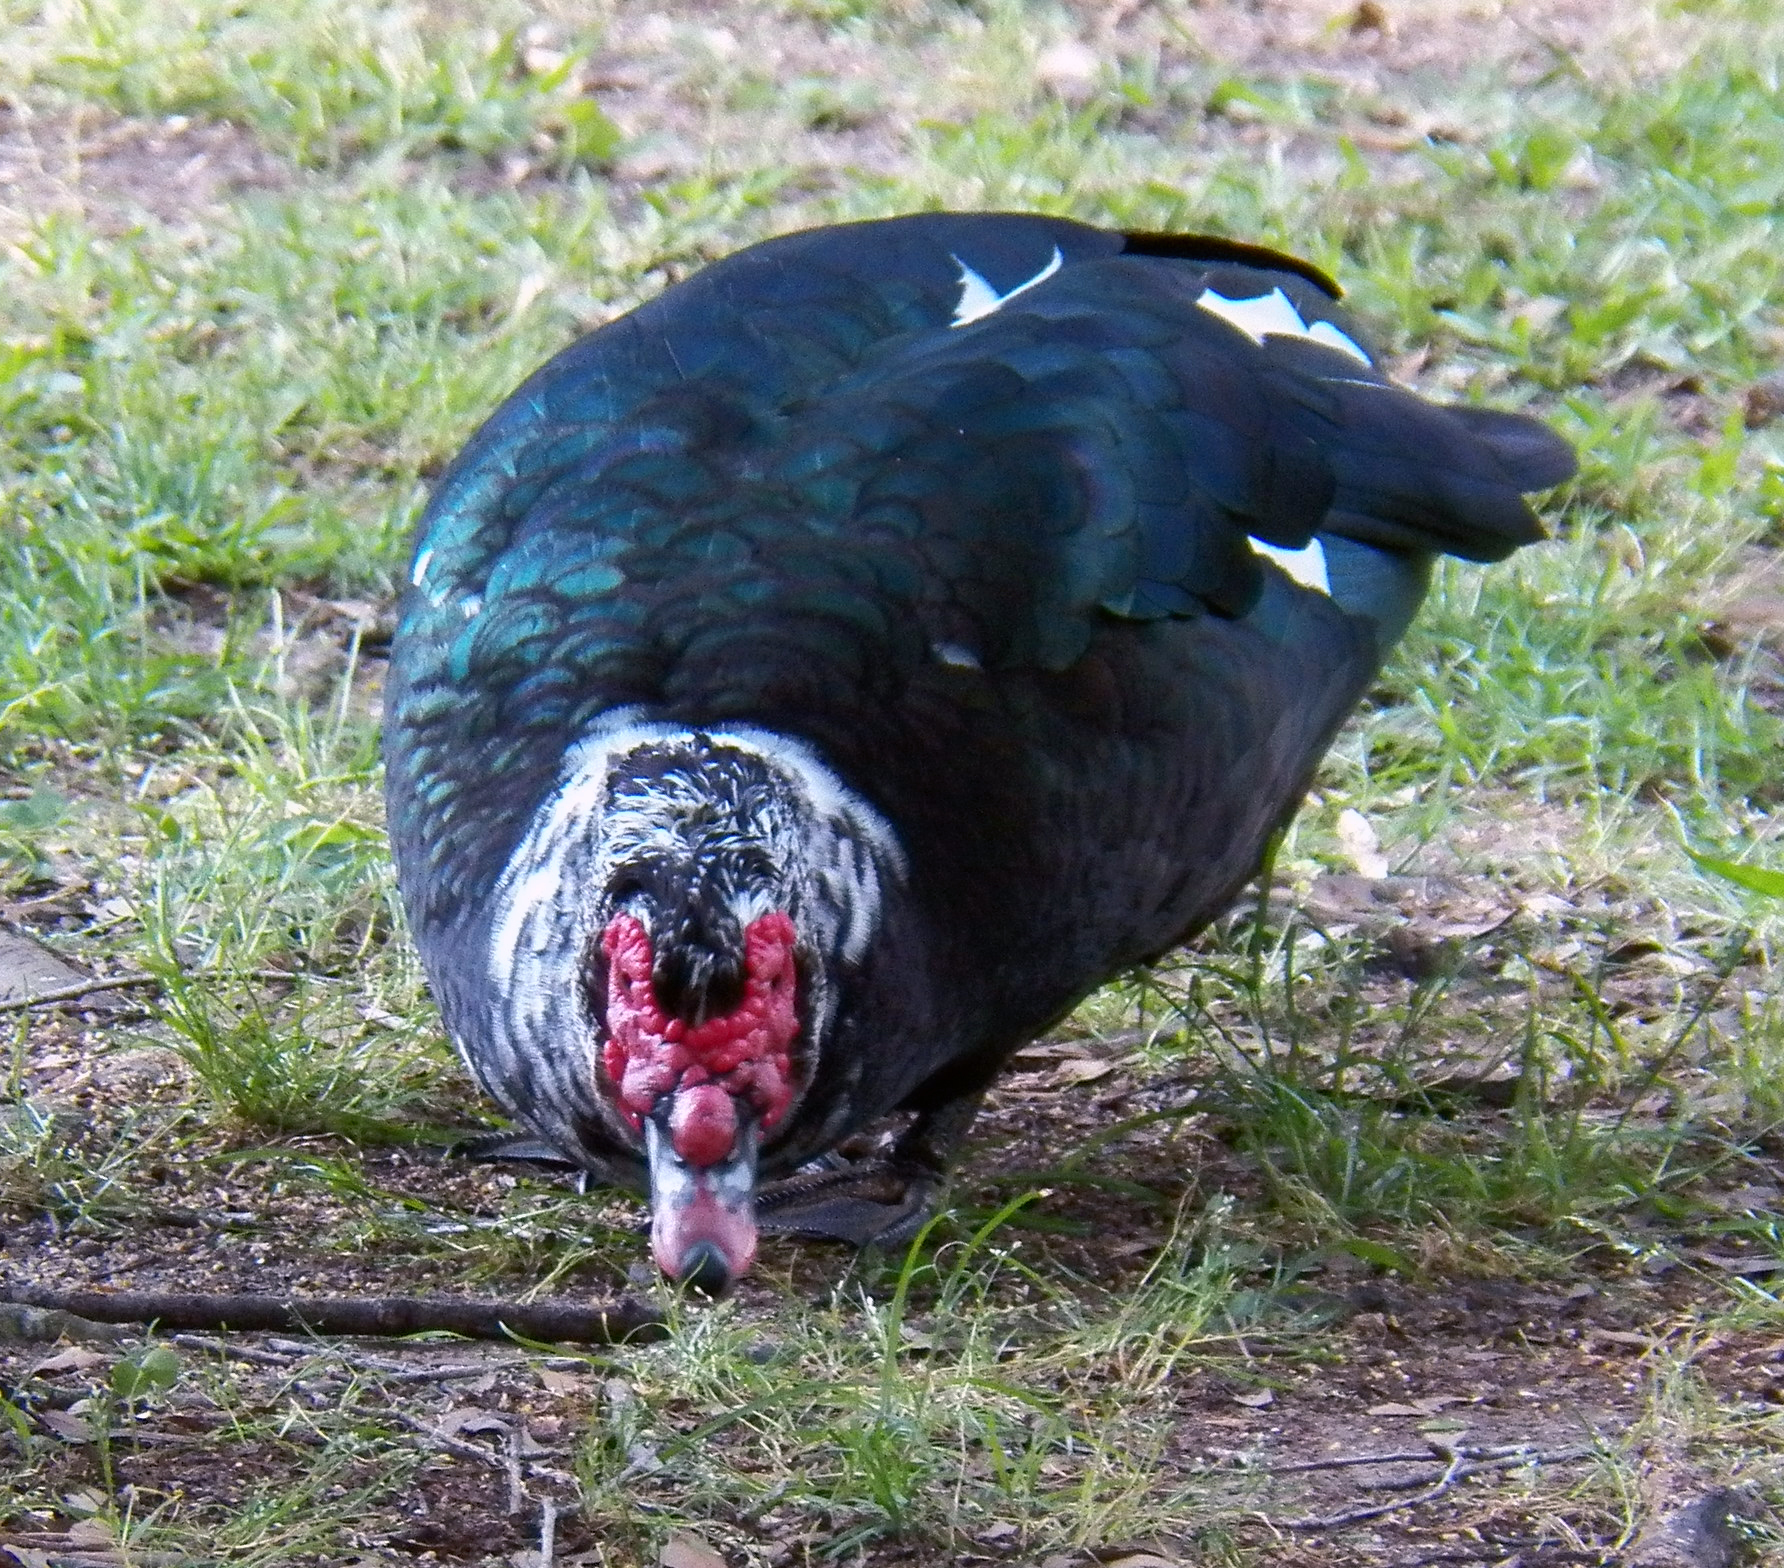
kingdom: Animalia
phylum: Chordata
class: Aves
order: Anseriformes
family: Anatidae
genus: Cairina
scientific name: Cairina moschata
